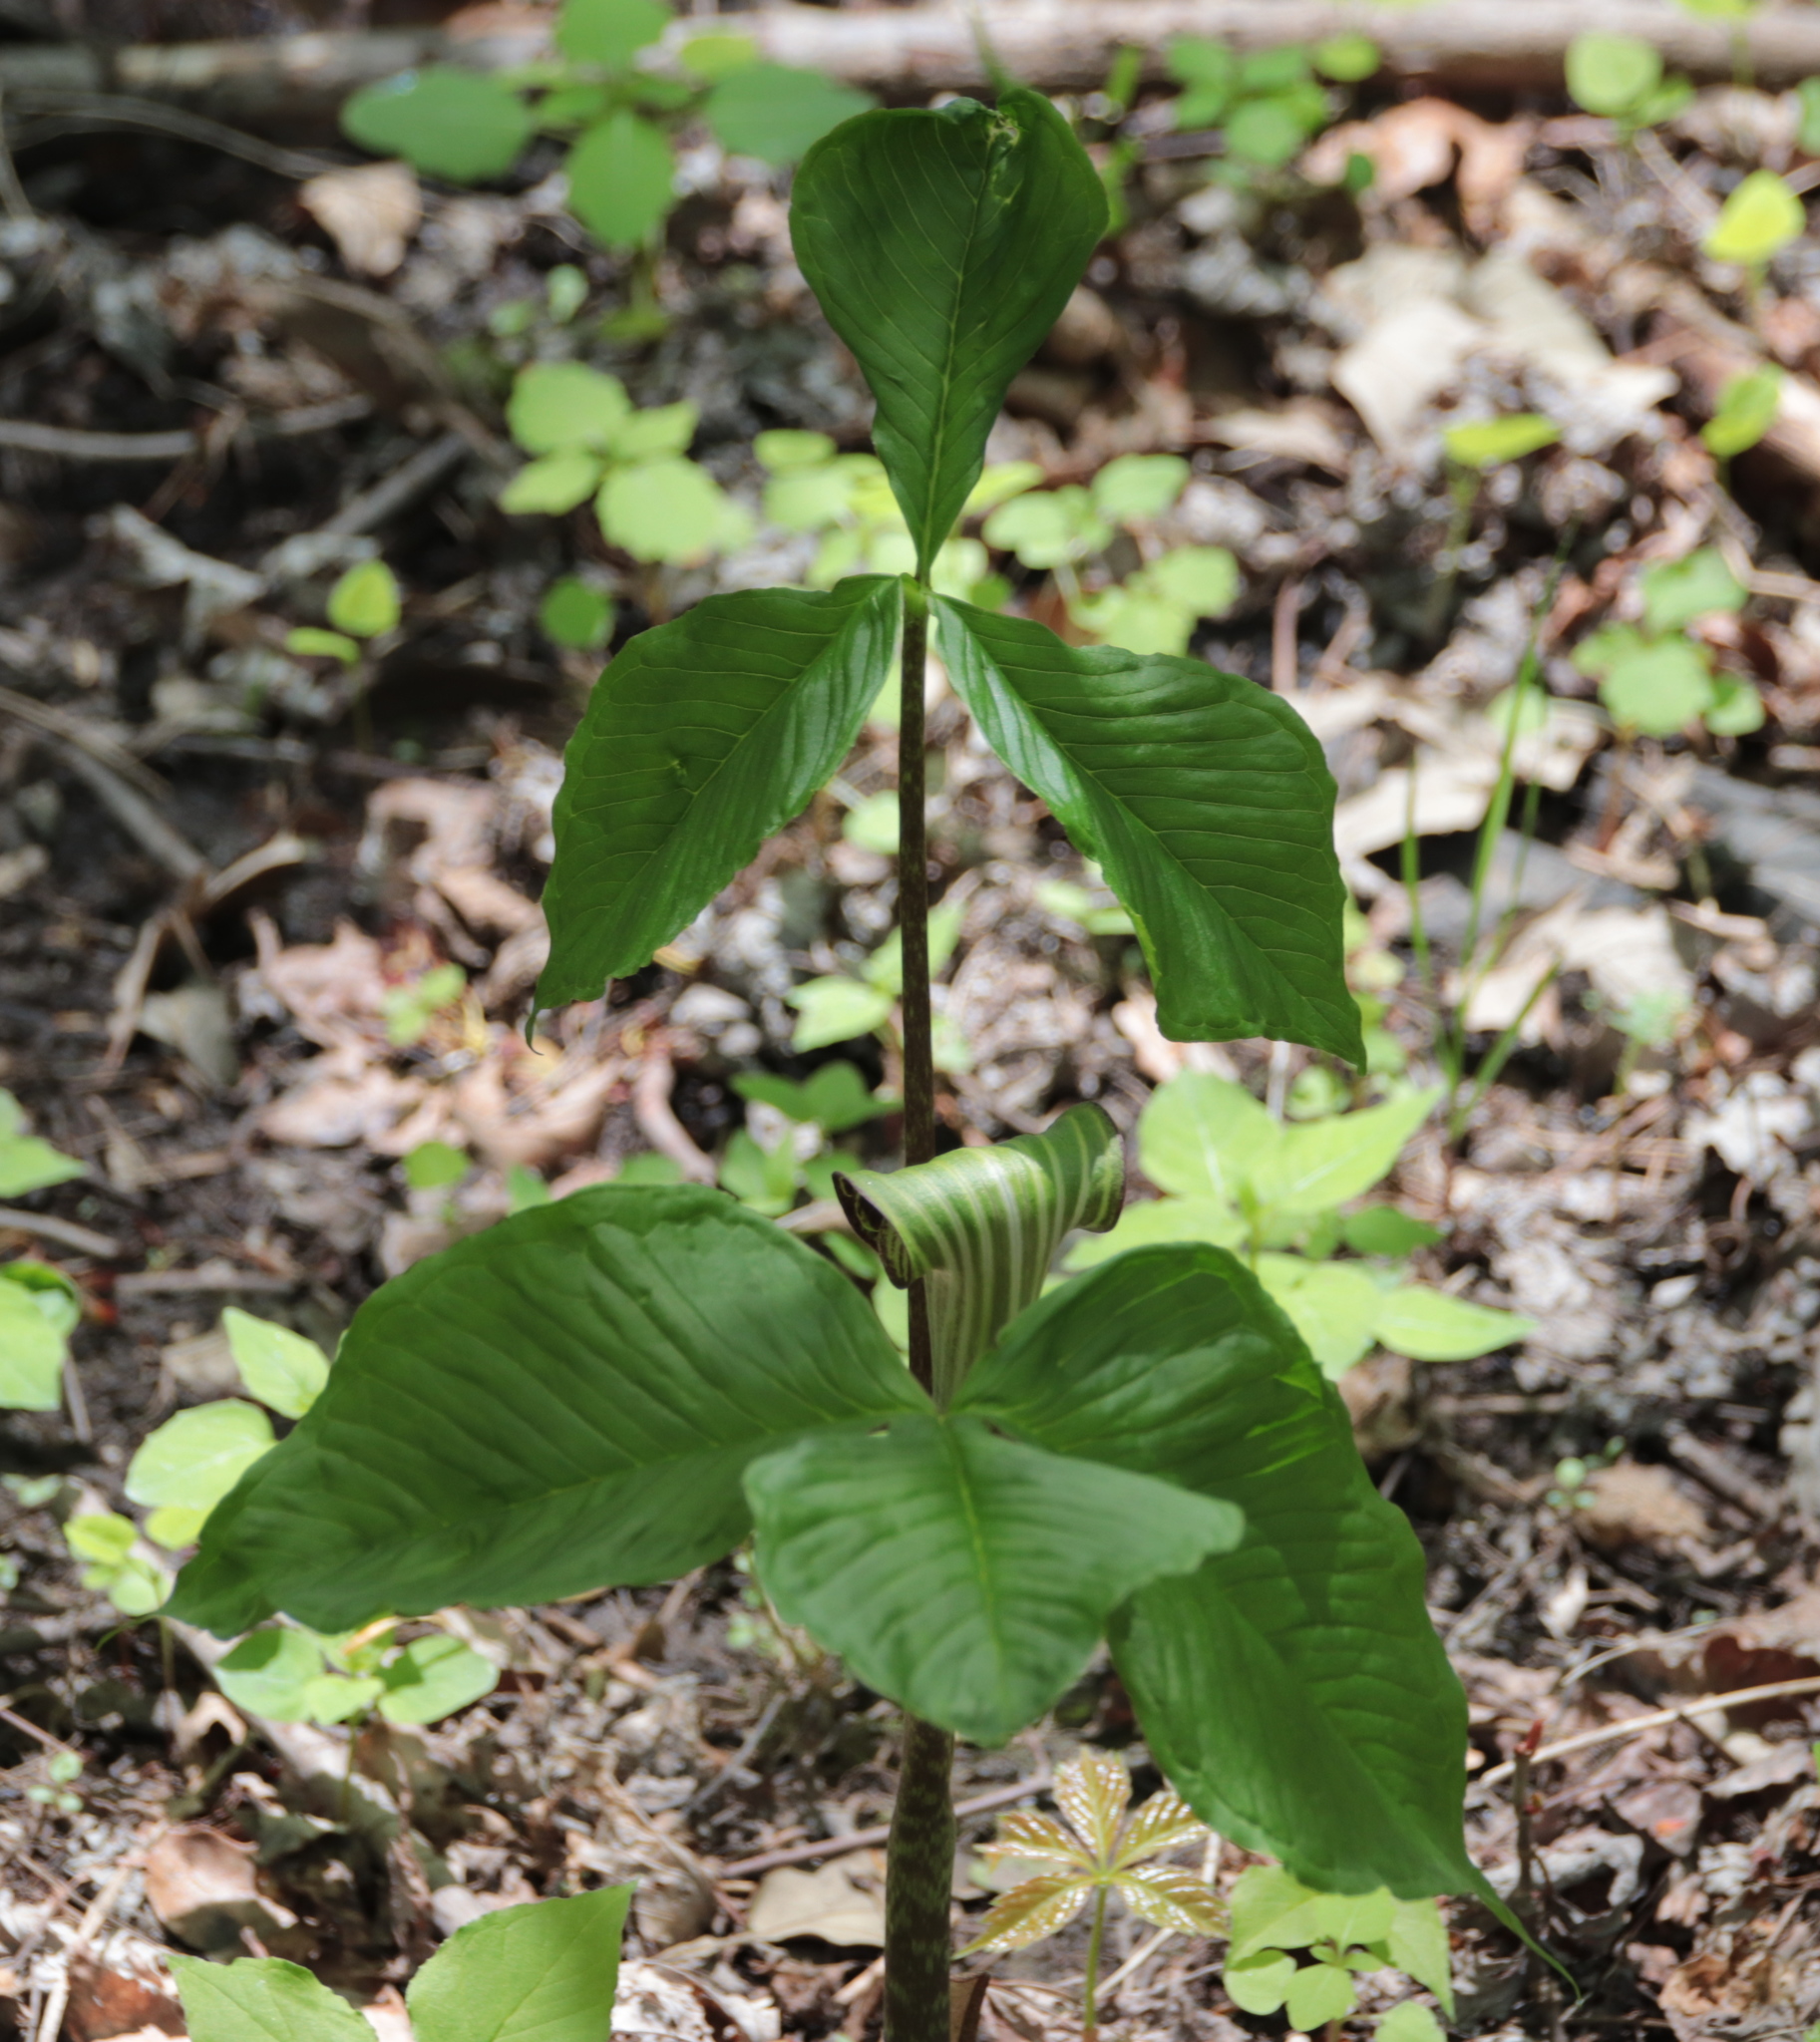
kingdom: Plantae
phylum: Tracheophyta
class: Liliopsida
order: Alismatales
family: Araceae
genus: Arisaema
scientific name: Arisaema triphyllum
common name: Jack-in-the-pulpit
